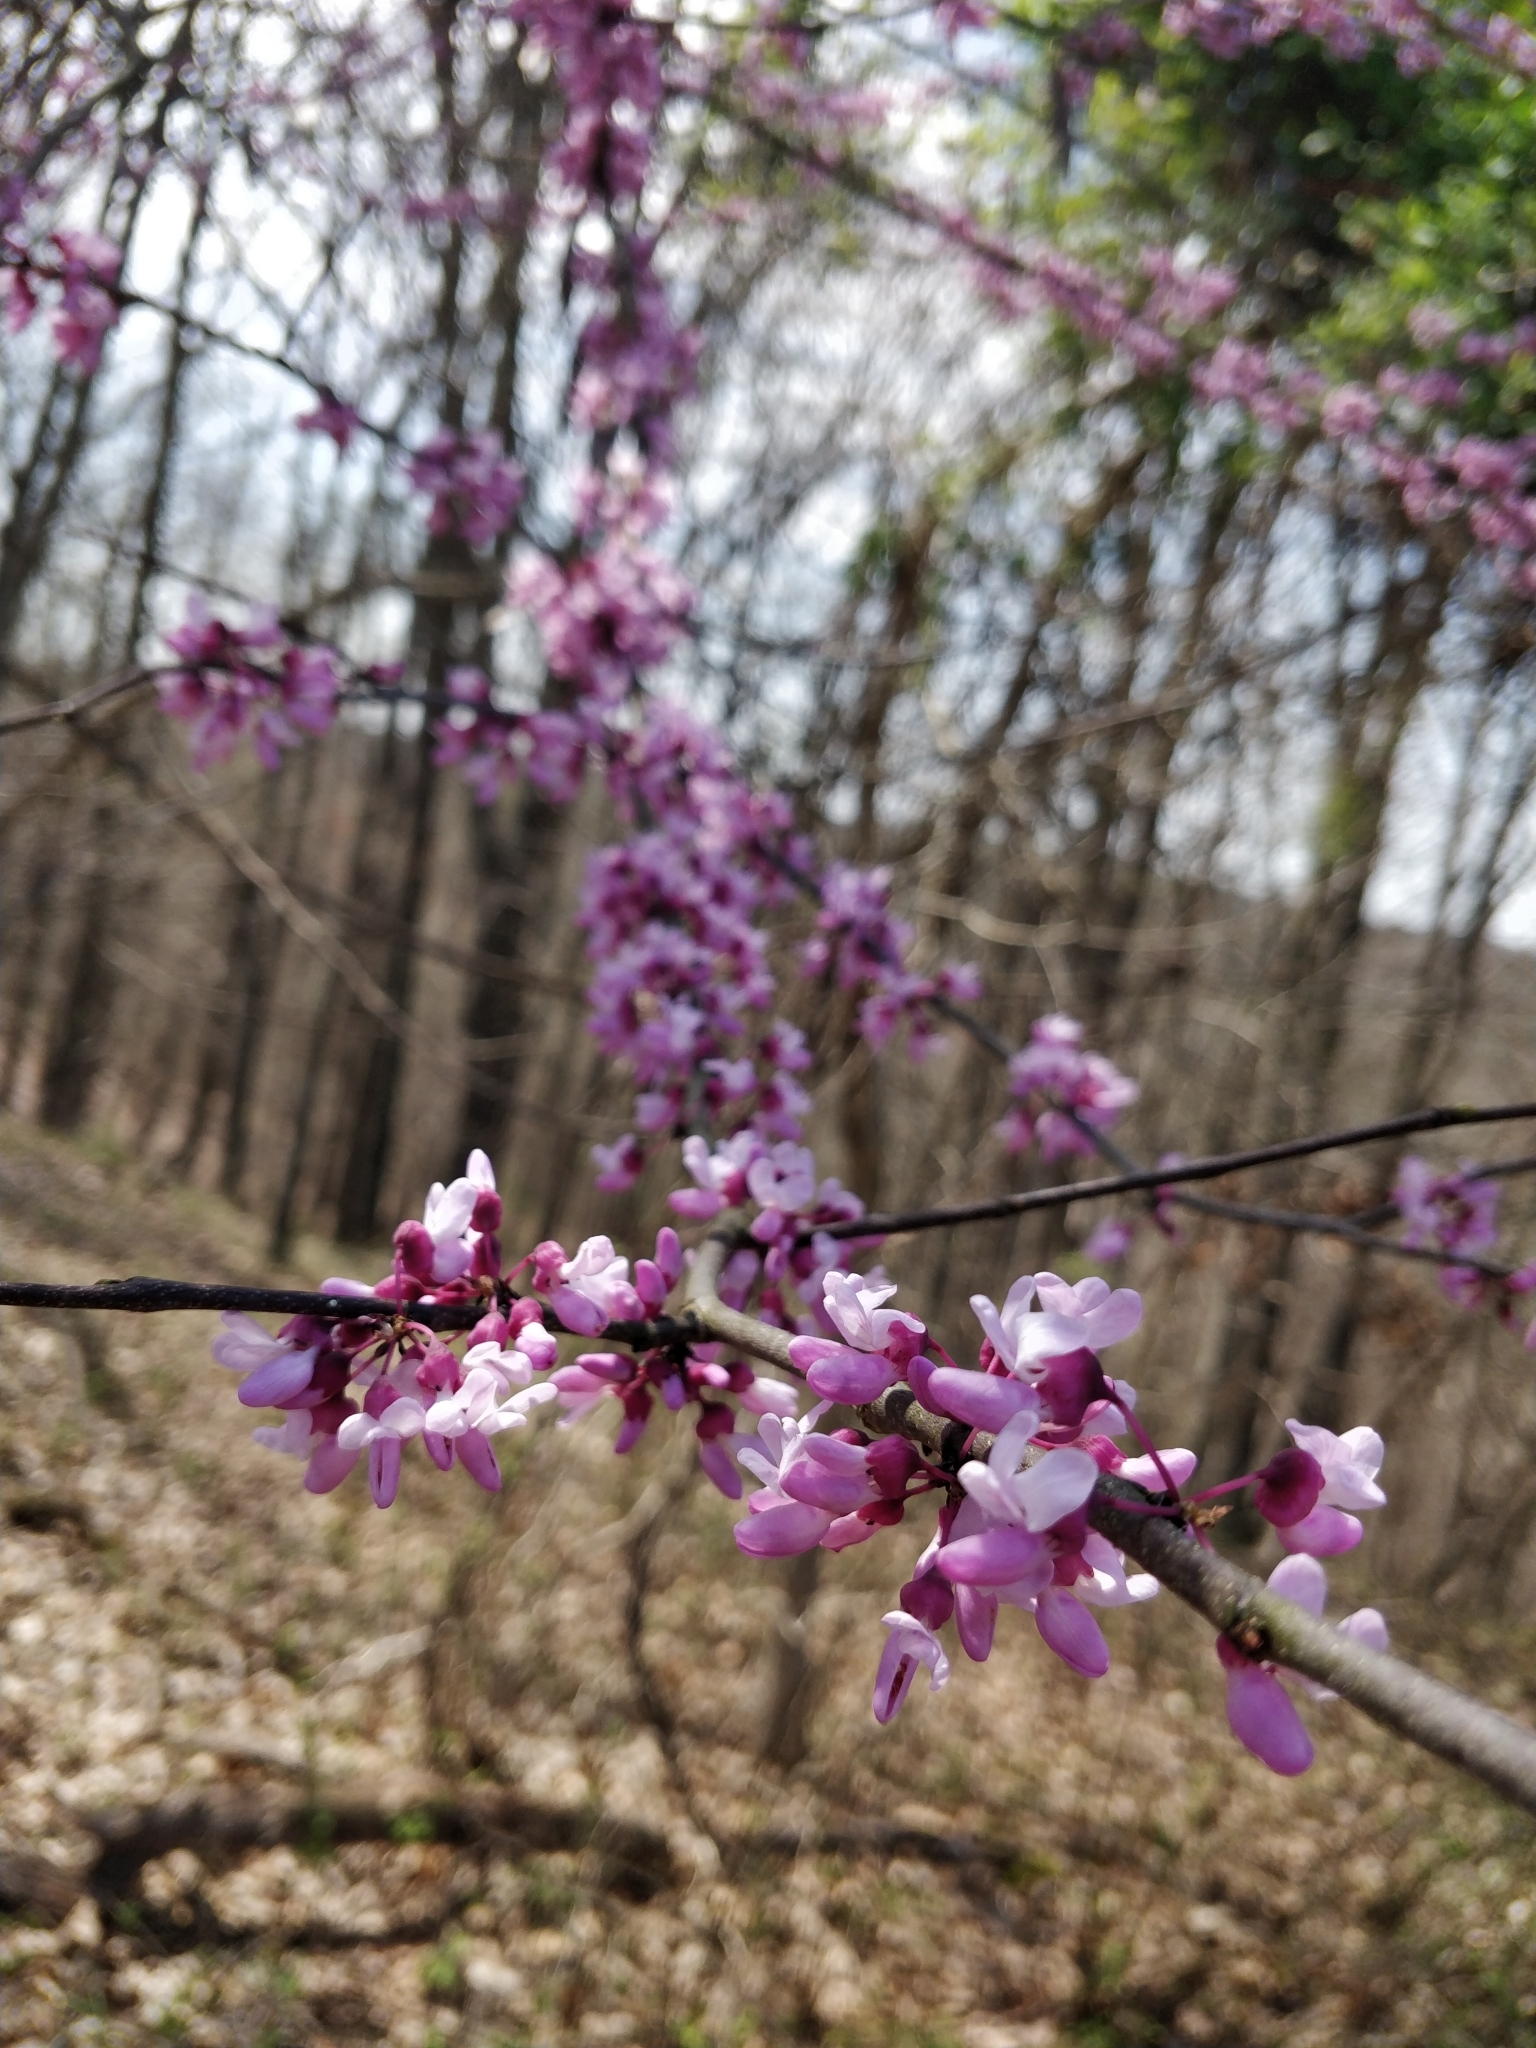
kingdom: Plantae
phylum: Tracheophyta
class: Magnoliopsida
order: Fabales
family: Fabaceae
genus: Cercis
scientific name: Cercis canadensis
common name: Eastern redbud
